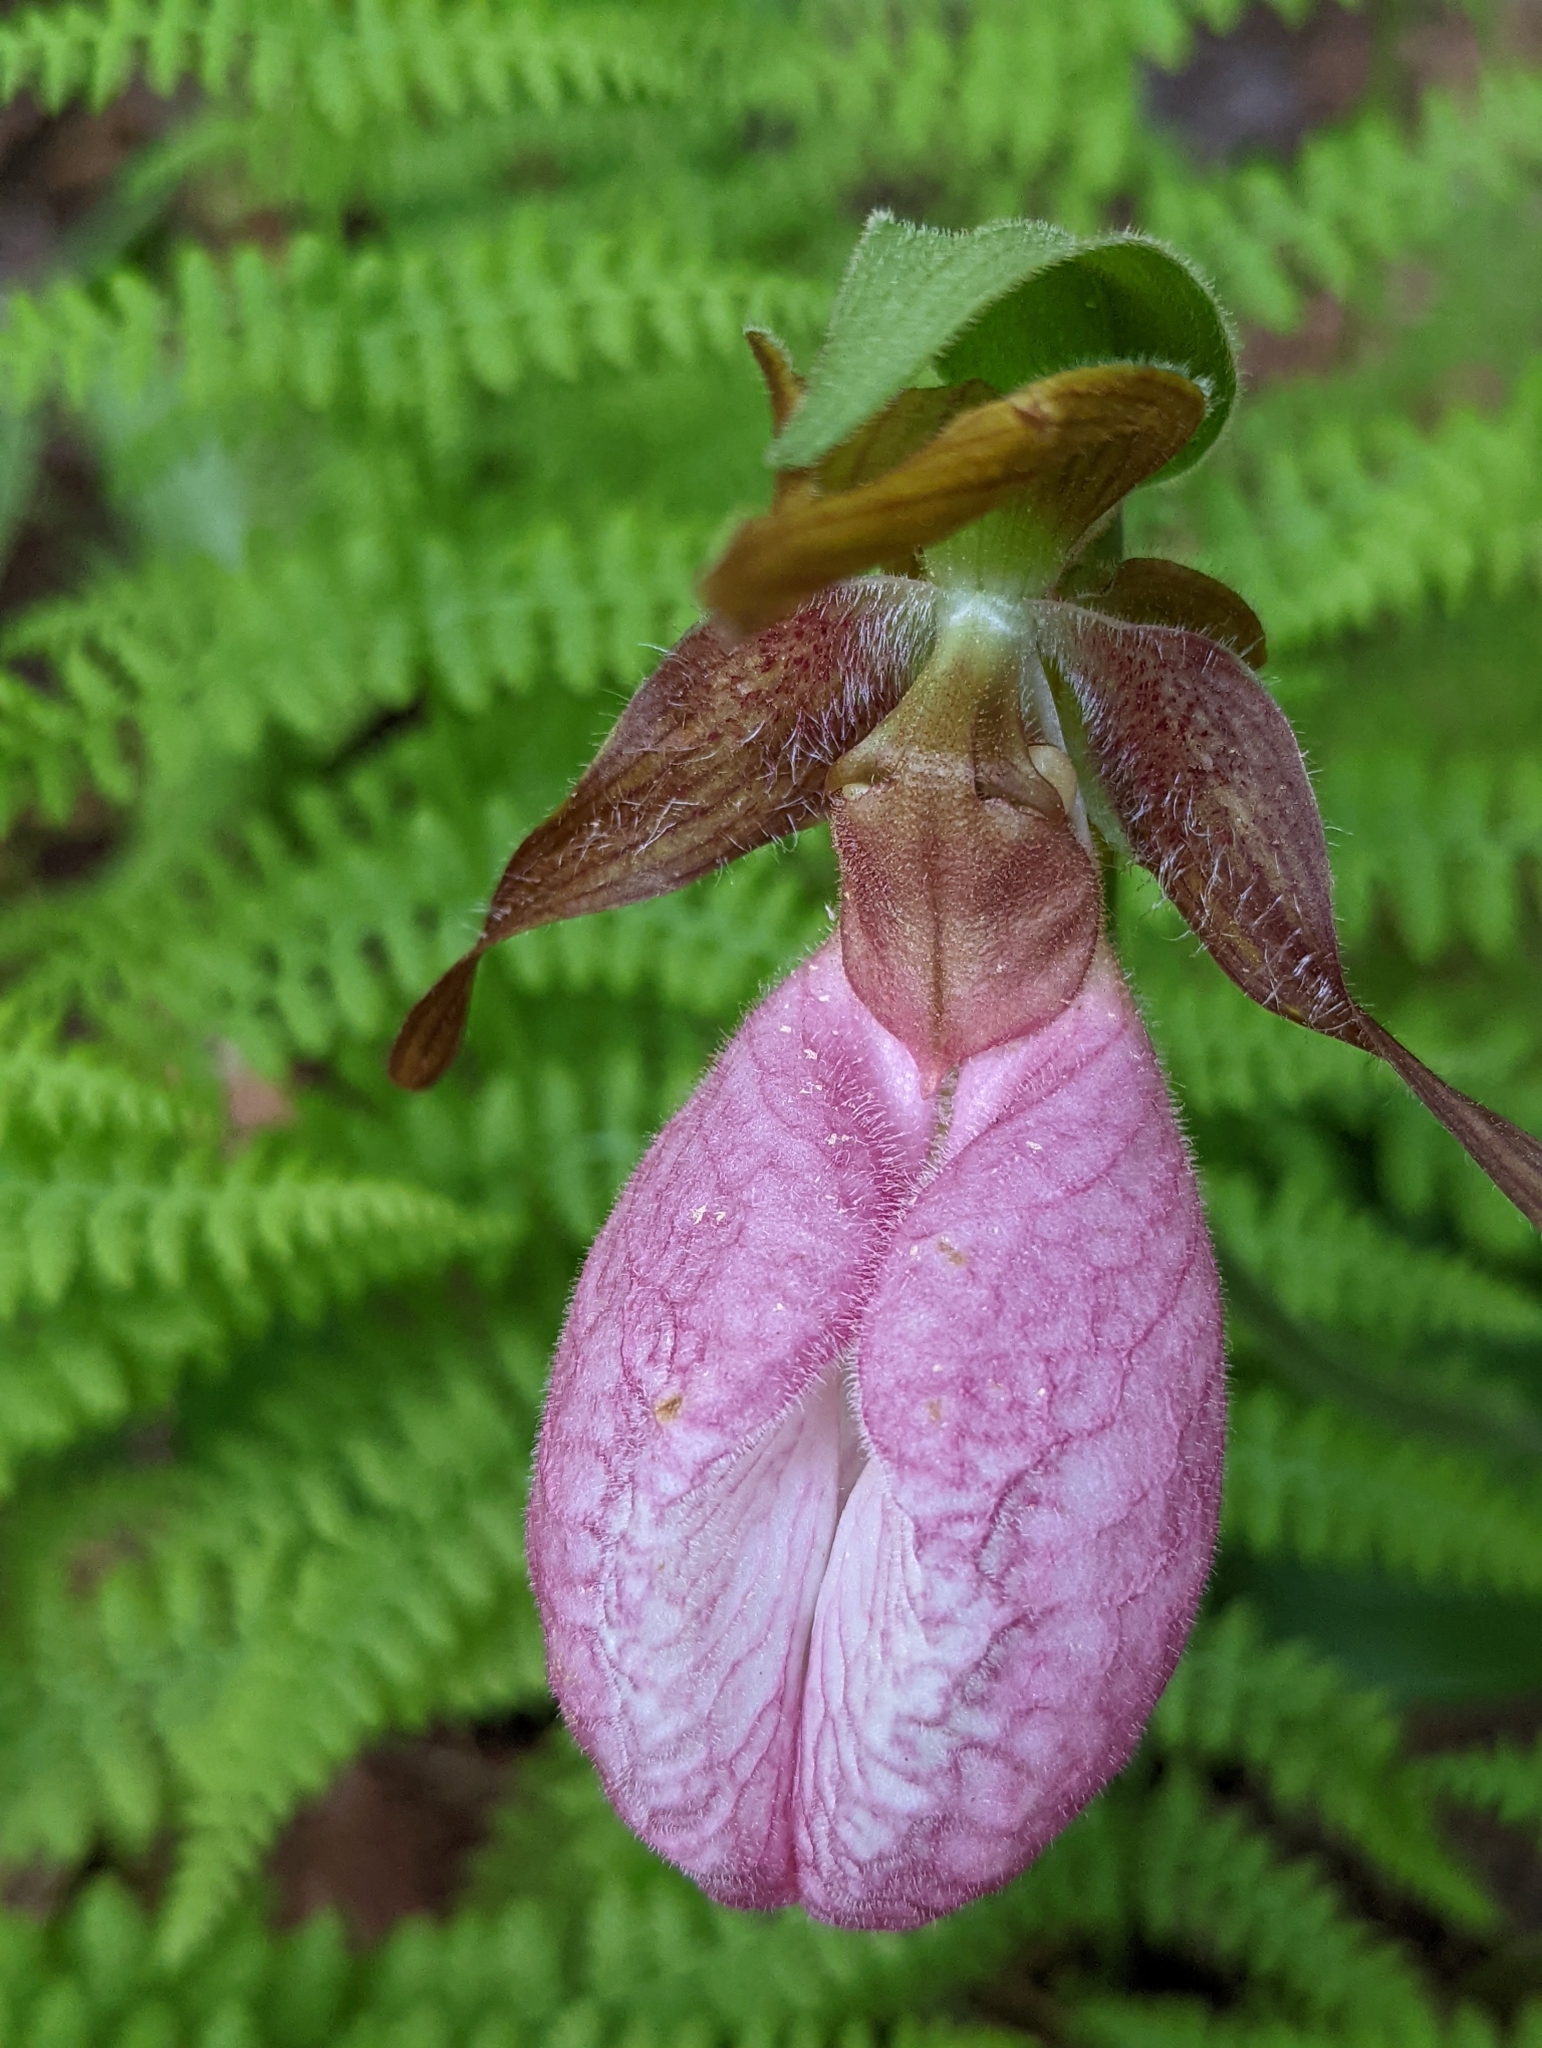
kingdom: Plantae
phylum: Tracheophyta
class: Liliopsida
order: Asparagales
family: Orchidaceae
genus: Cypripedium
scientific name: Cypripedium acaule
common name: Pink lady's-slipper
